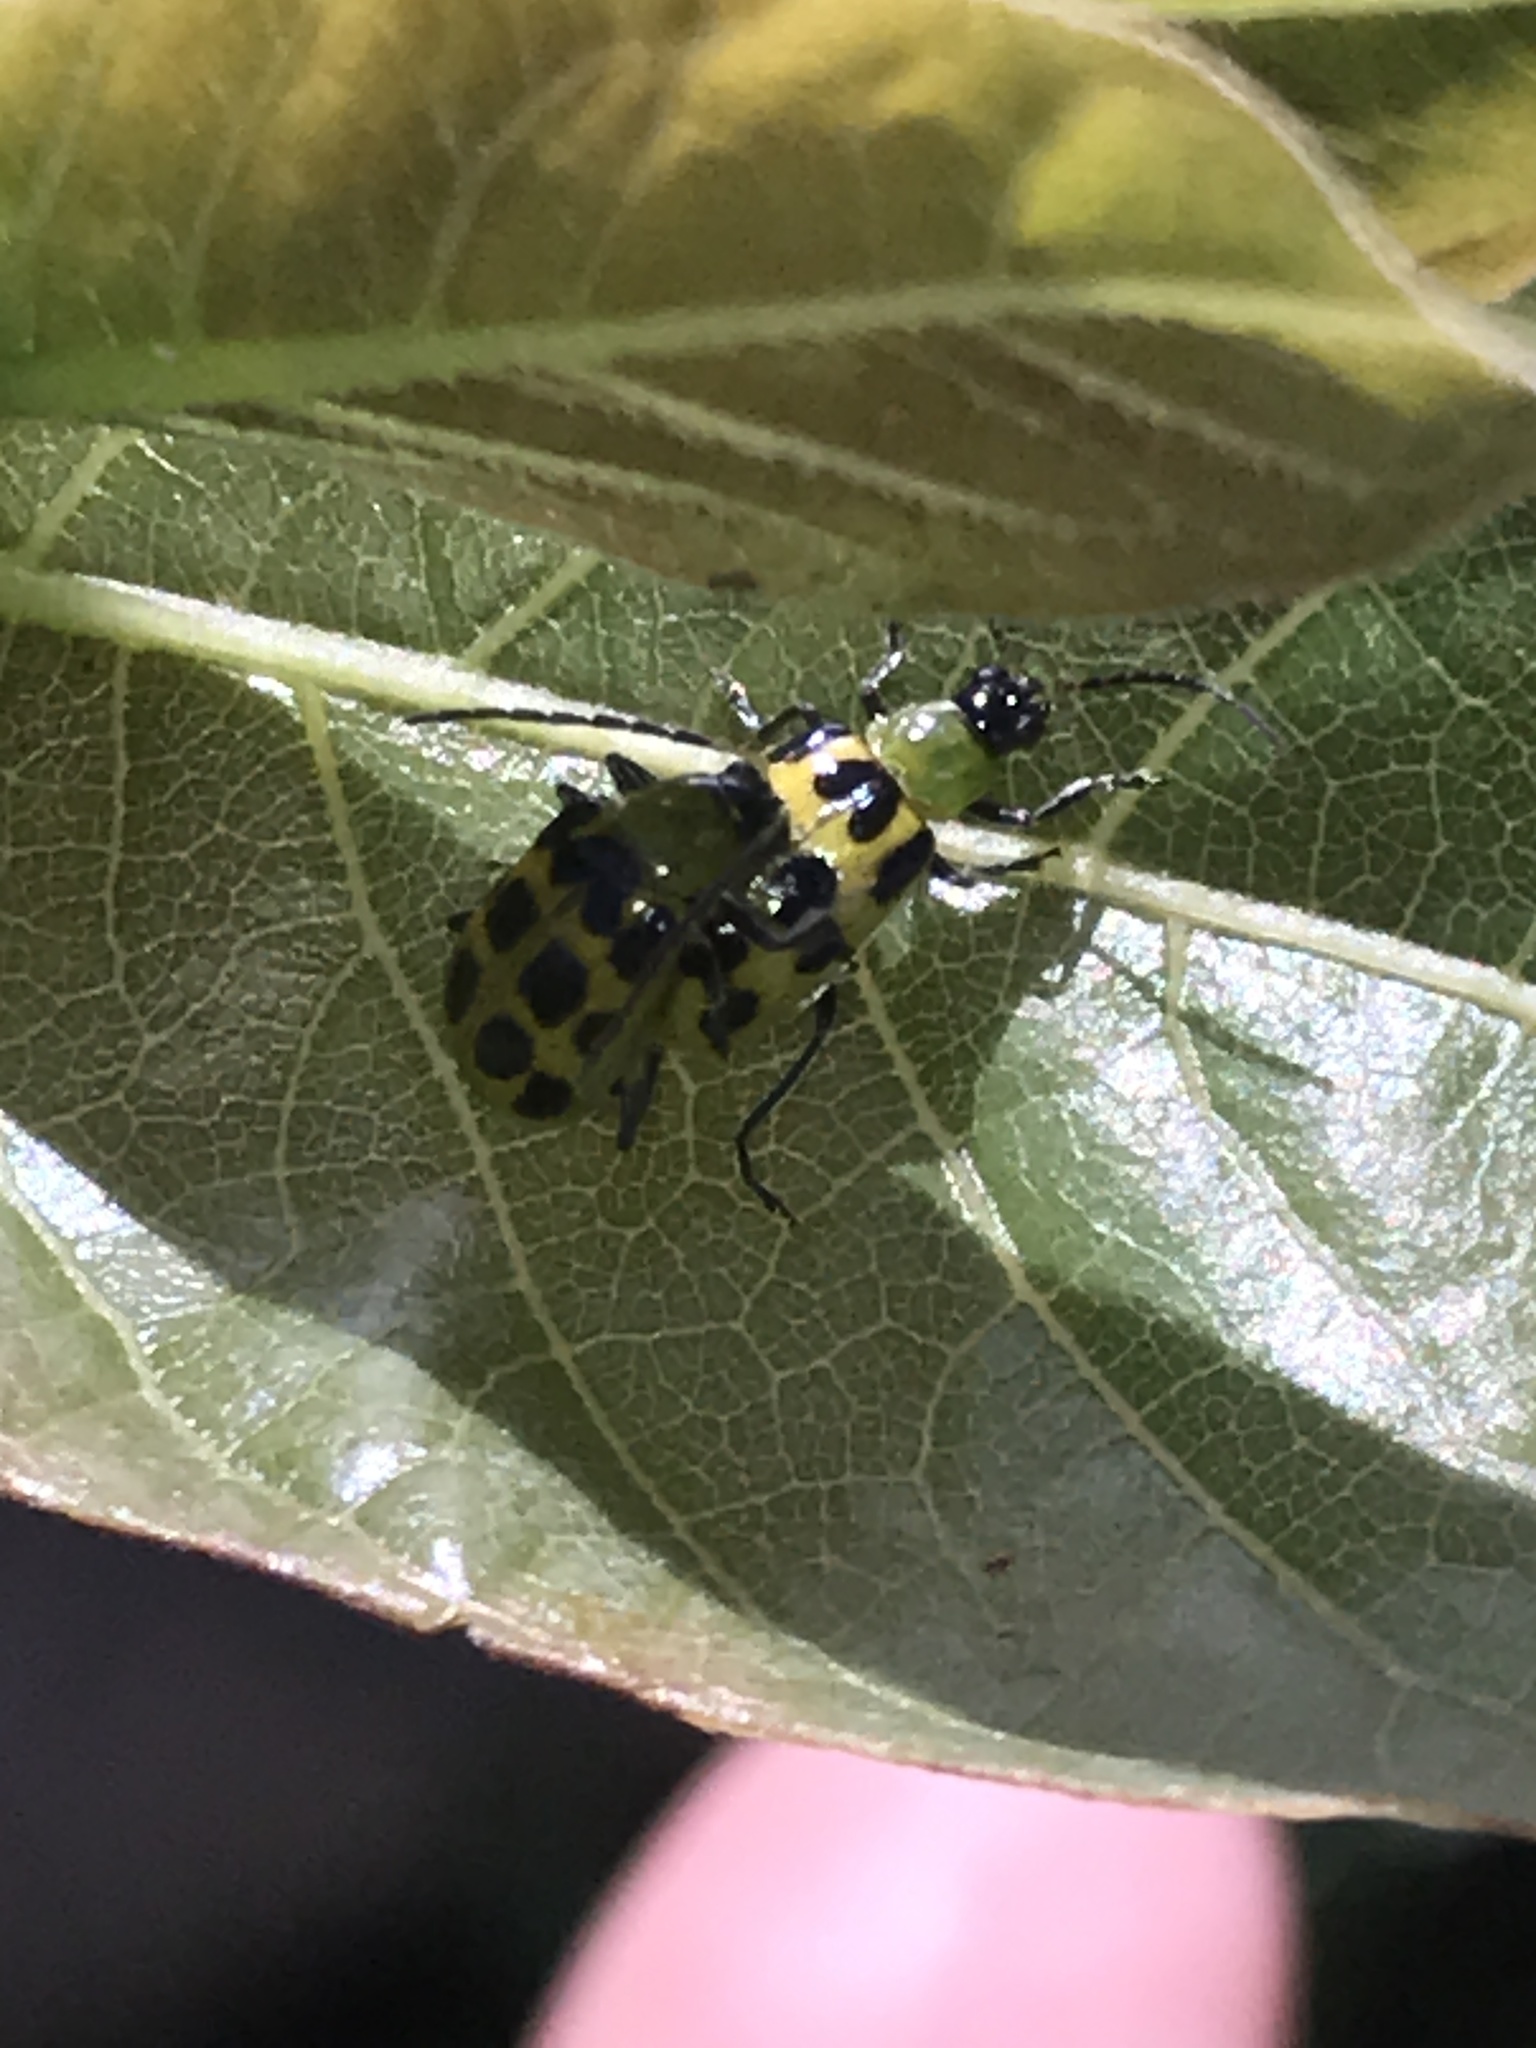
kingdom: Animalia
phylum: Arthropoda
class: Insecta
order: Coleoptera
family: Chrysomelidae
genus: Diabrotica
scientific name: Diabrotica undecimpunctata
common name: Spotted cucumber beetle
